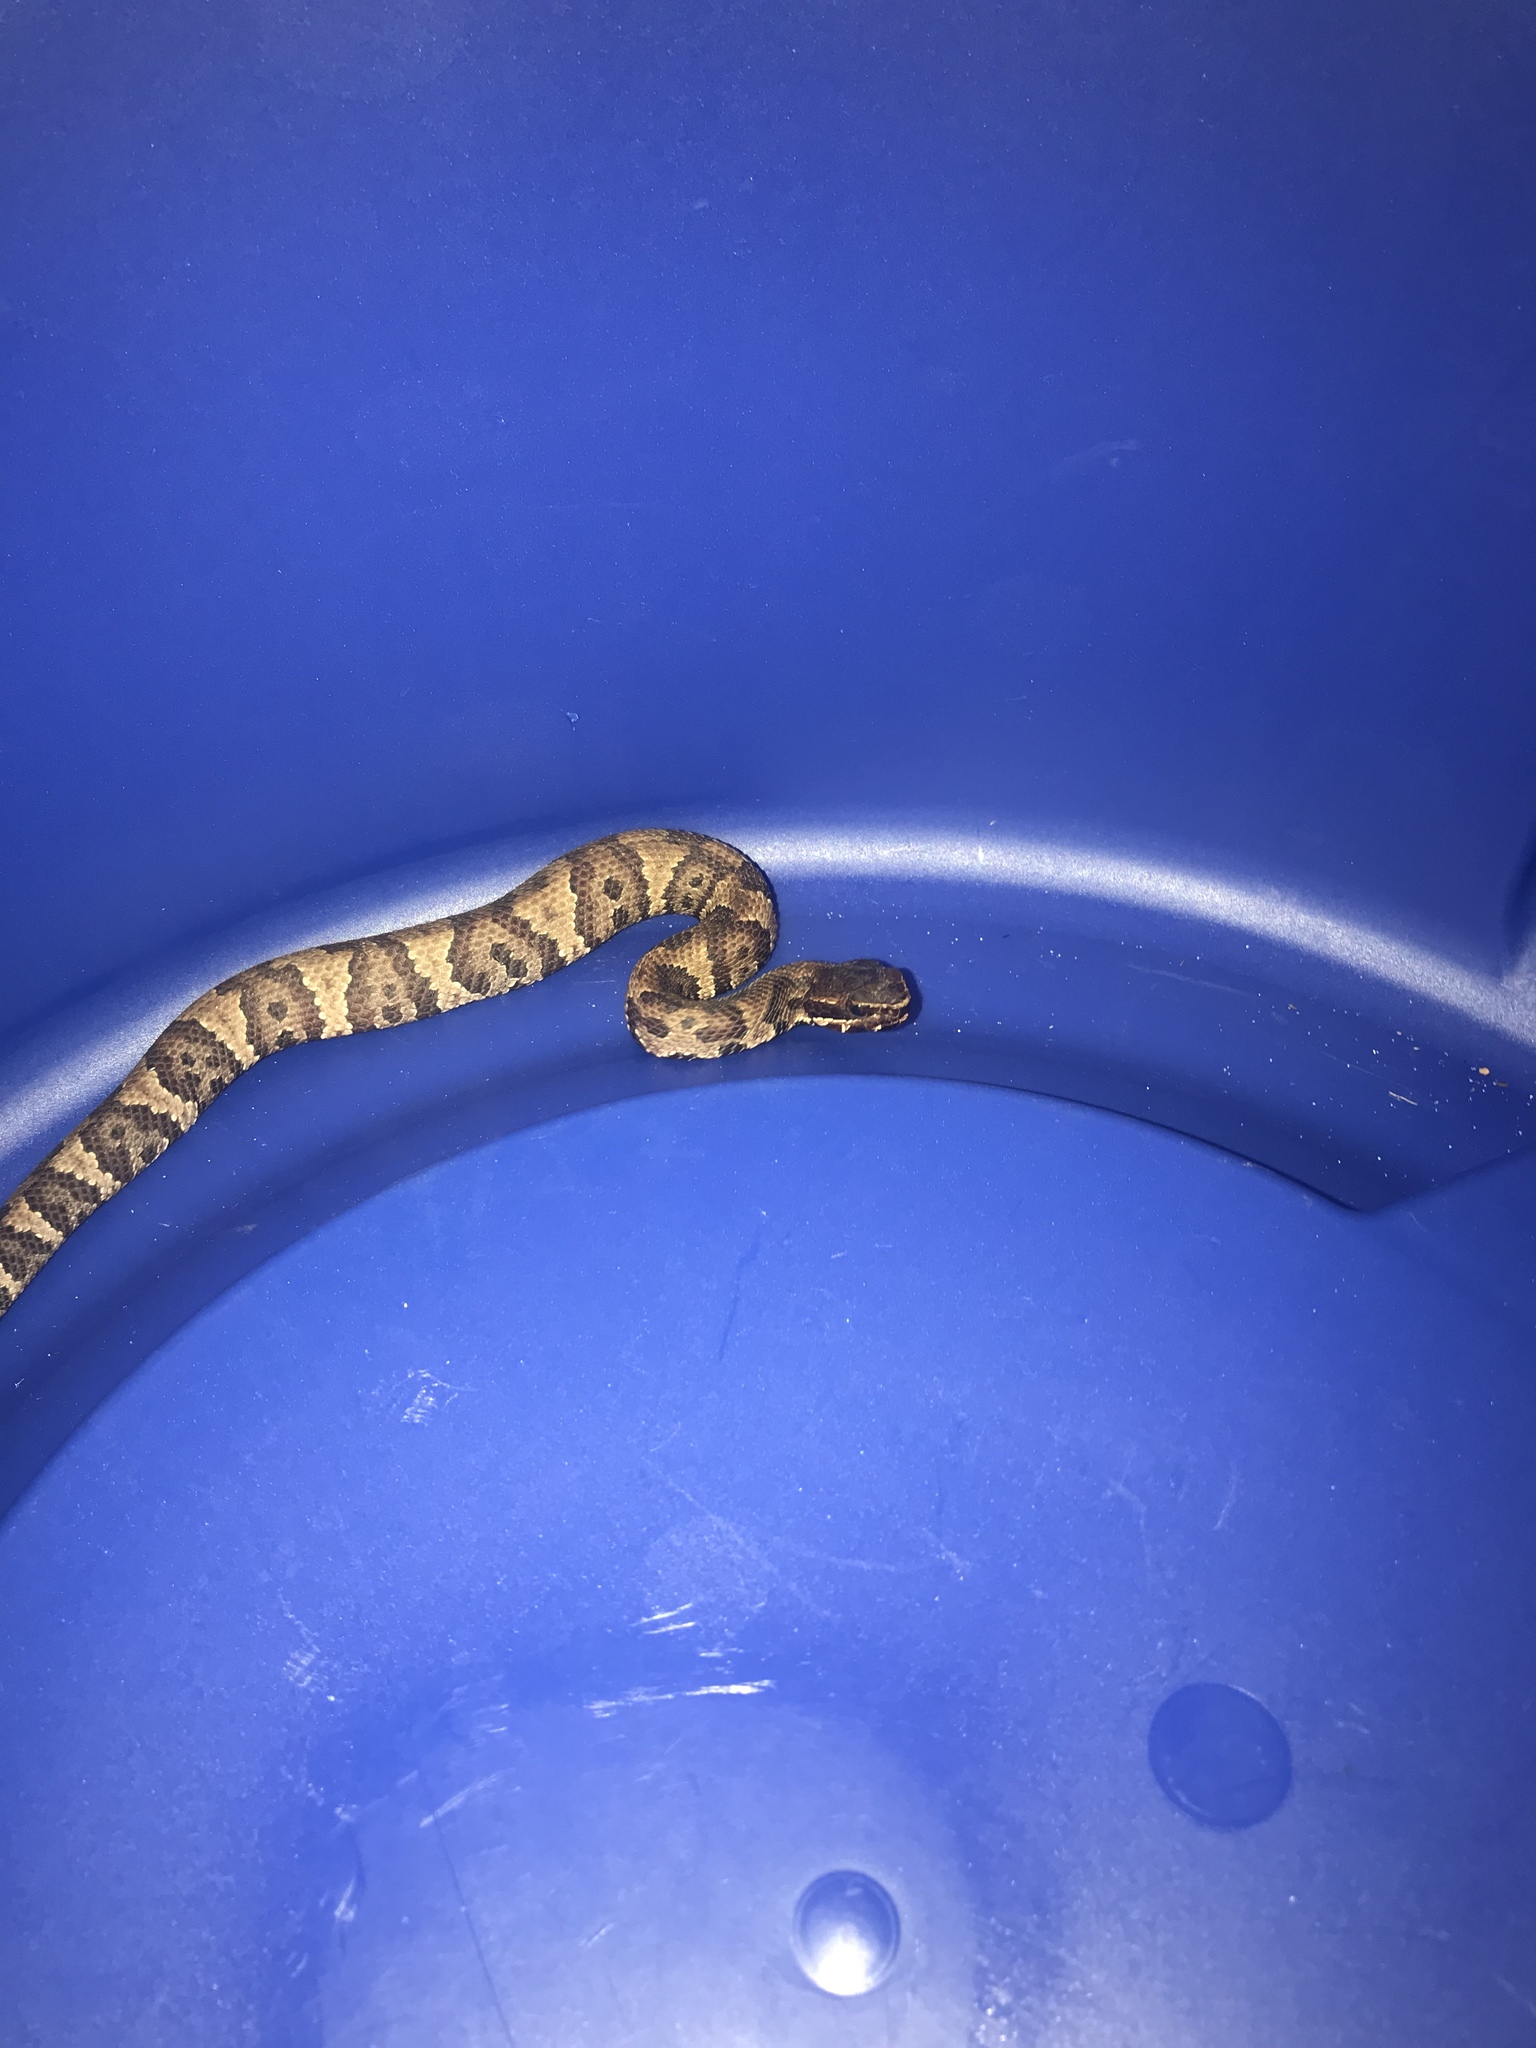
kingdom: Animalia
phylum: Chordata
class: Squamata
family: Viperidae
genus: Agkistrodon
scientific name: Agkistrodon piscivorus
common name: Cottonmouth
